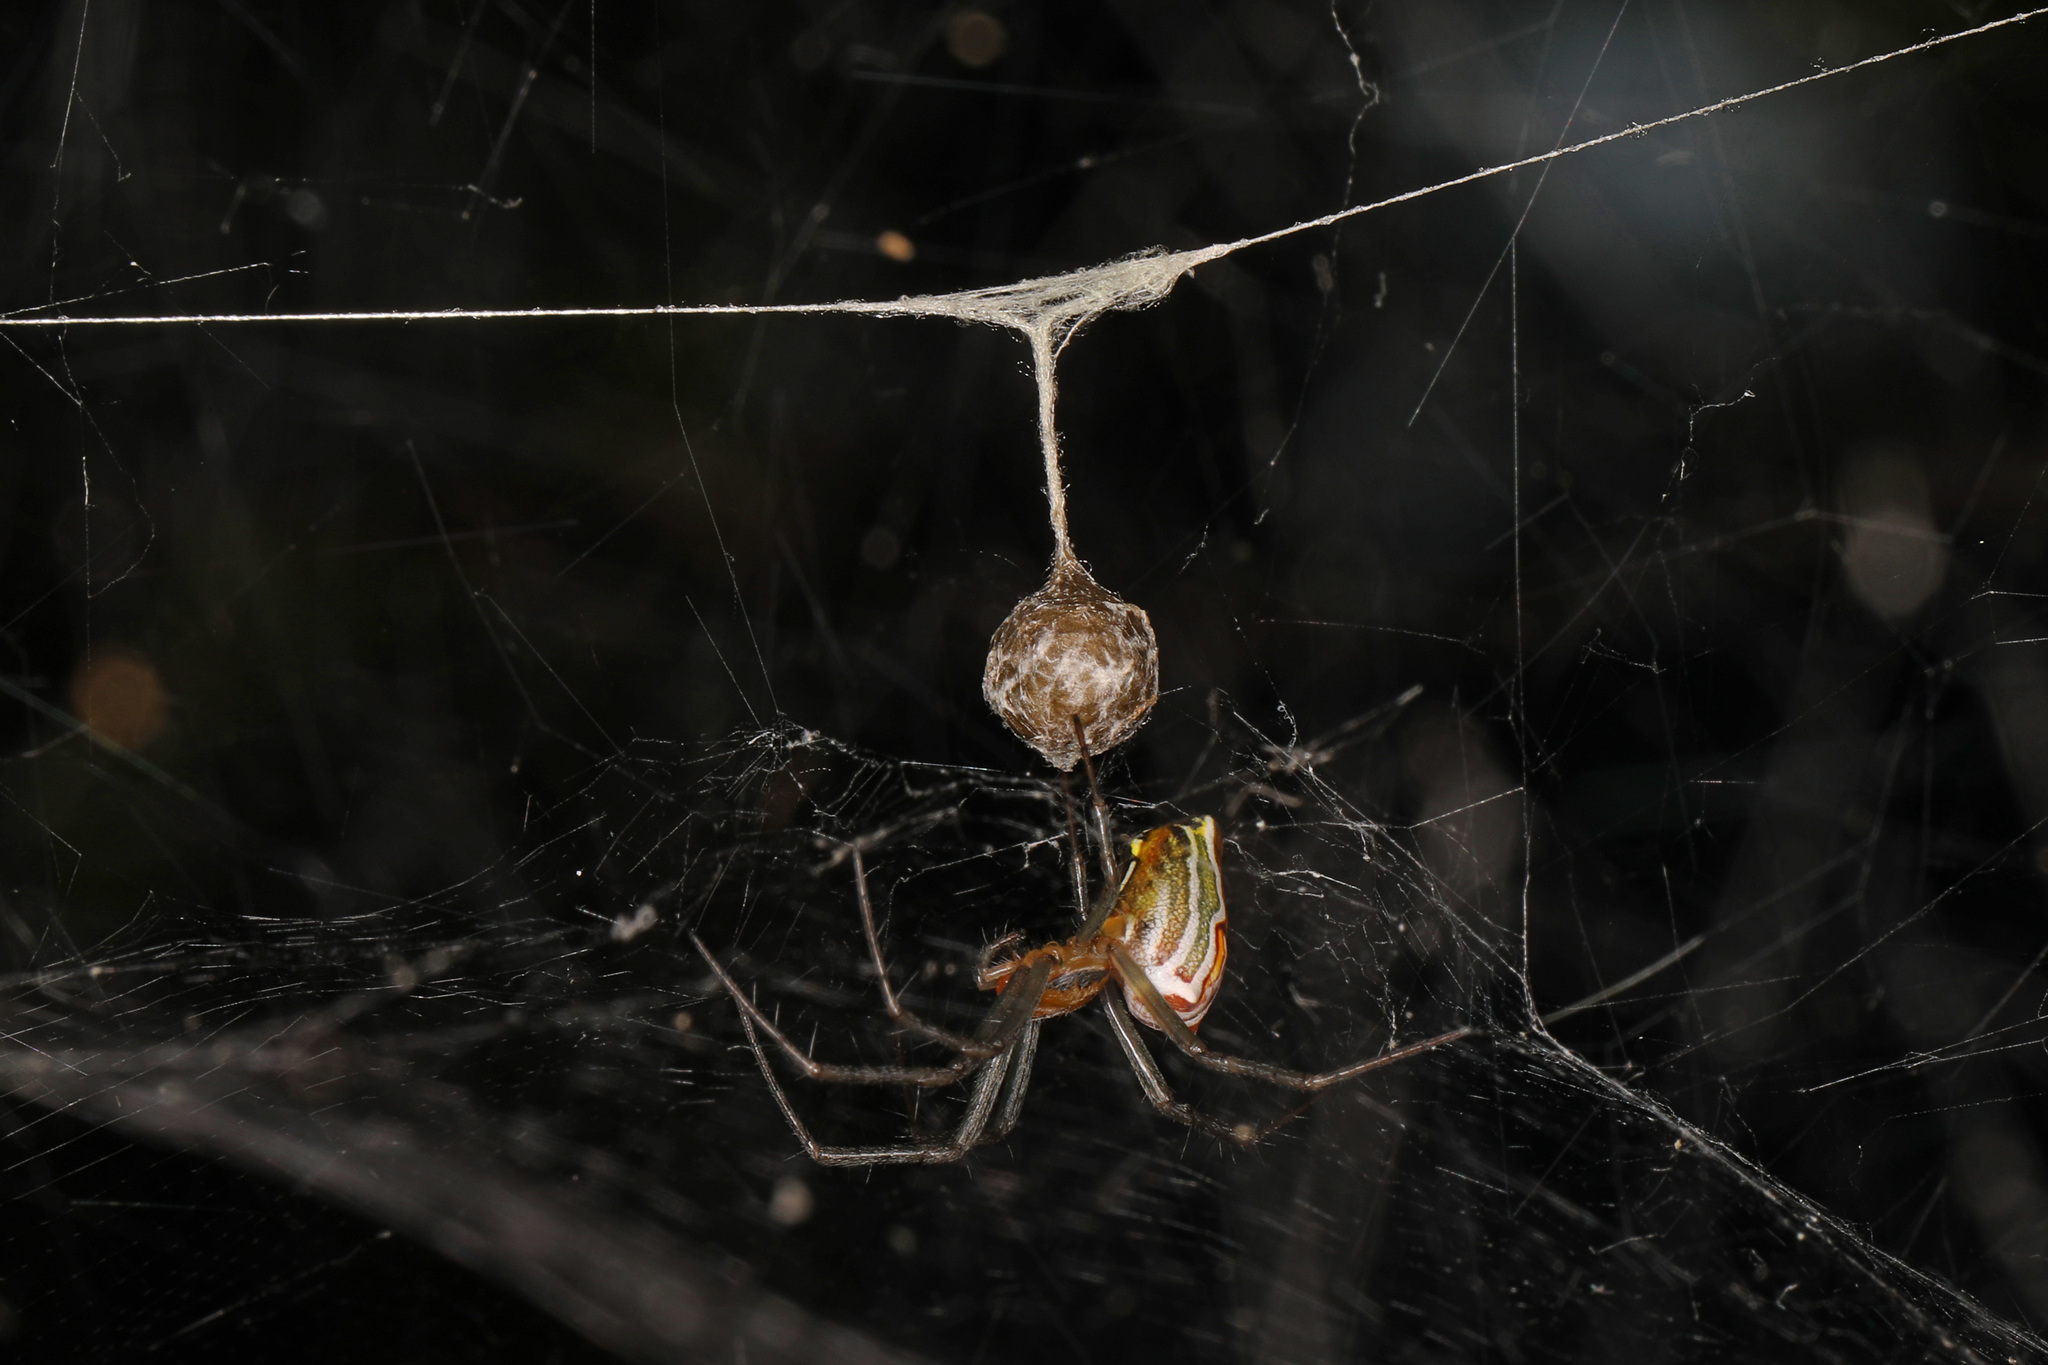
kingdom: Animalia
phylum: Arthropoda
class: Arachnida
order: Araneae
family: Araneidae
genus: Mecynogea
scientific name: Mecynogea lemniscata
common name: Orb weavers
